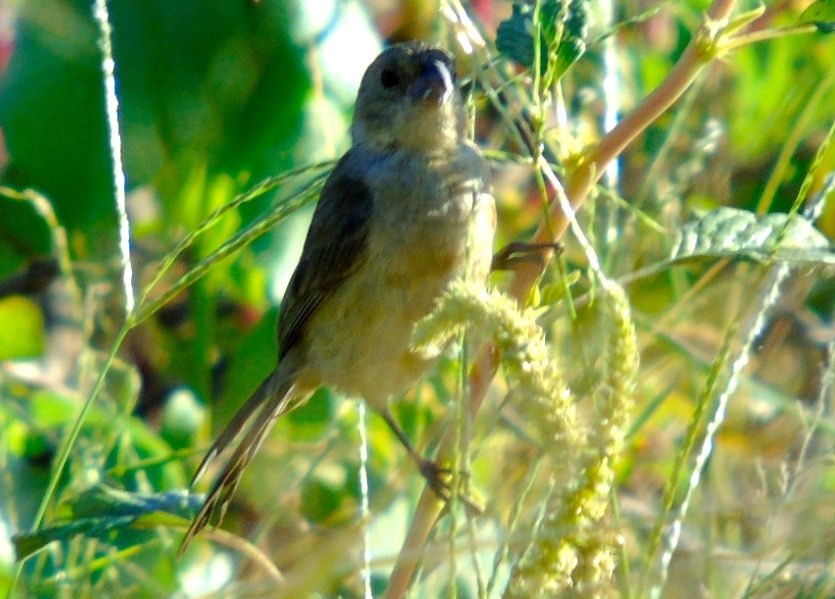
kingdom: Animalia
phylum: Chordata
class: Aves
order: Passeriformes
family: Thraupidae
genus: Sporophila
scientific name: Sporophila torqueola
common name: White-collared seedeater
